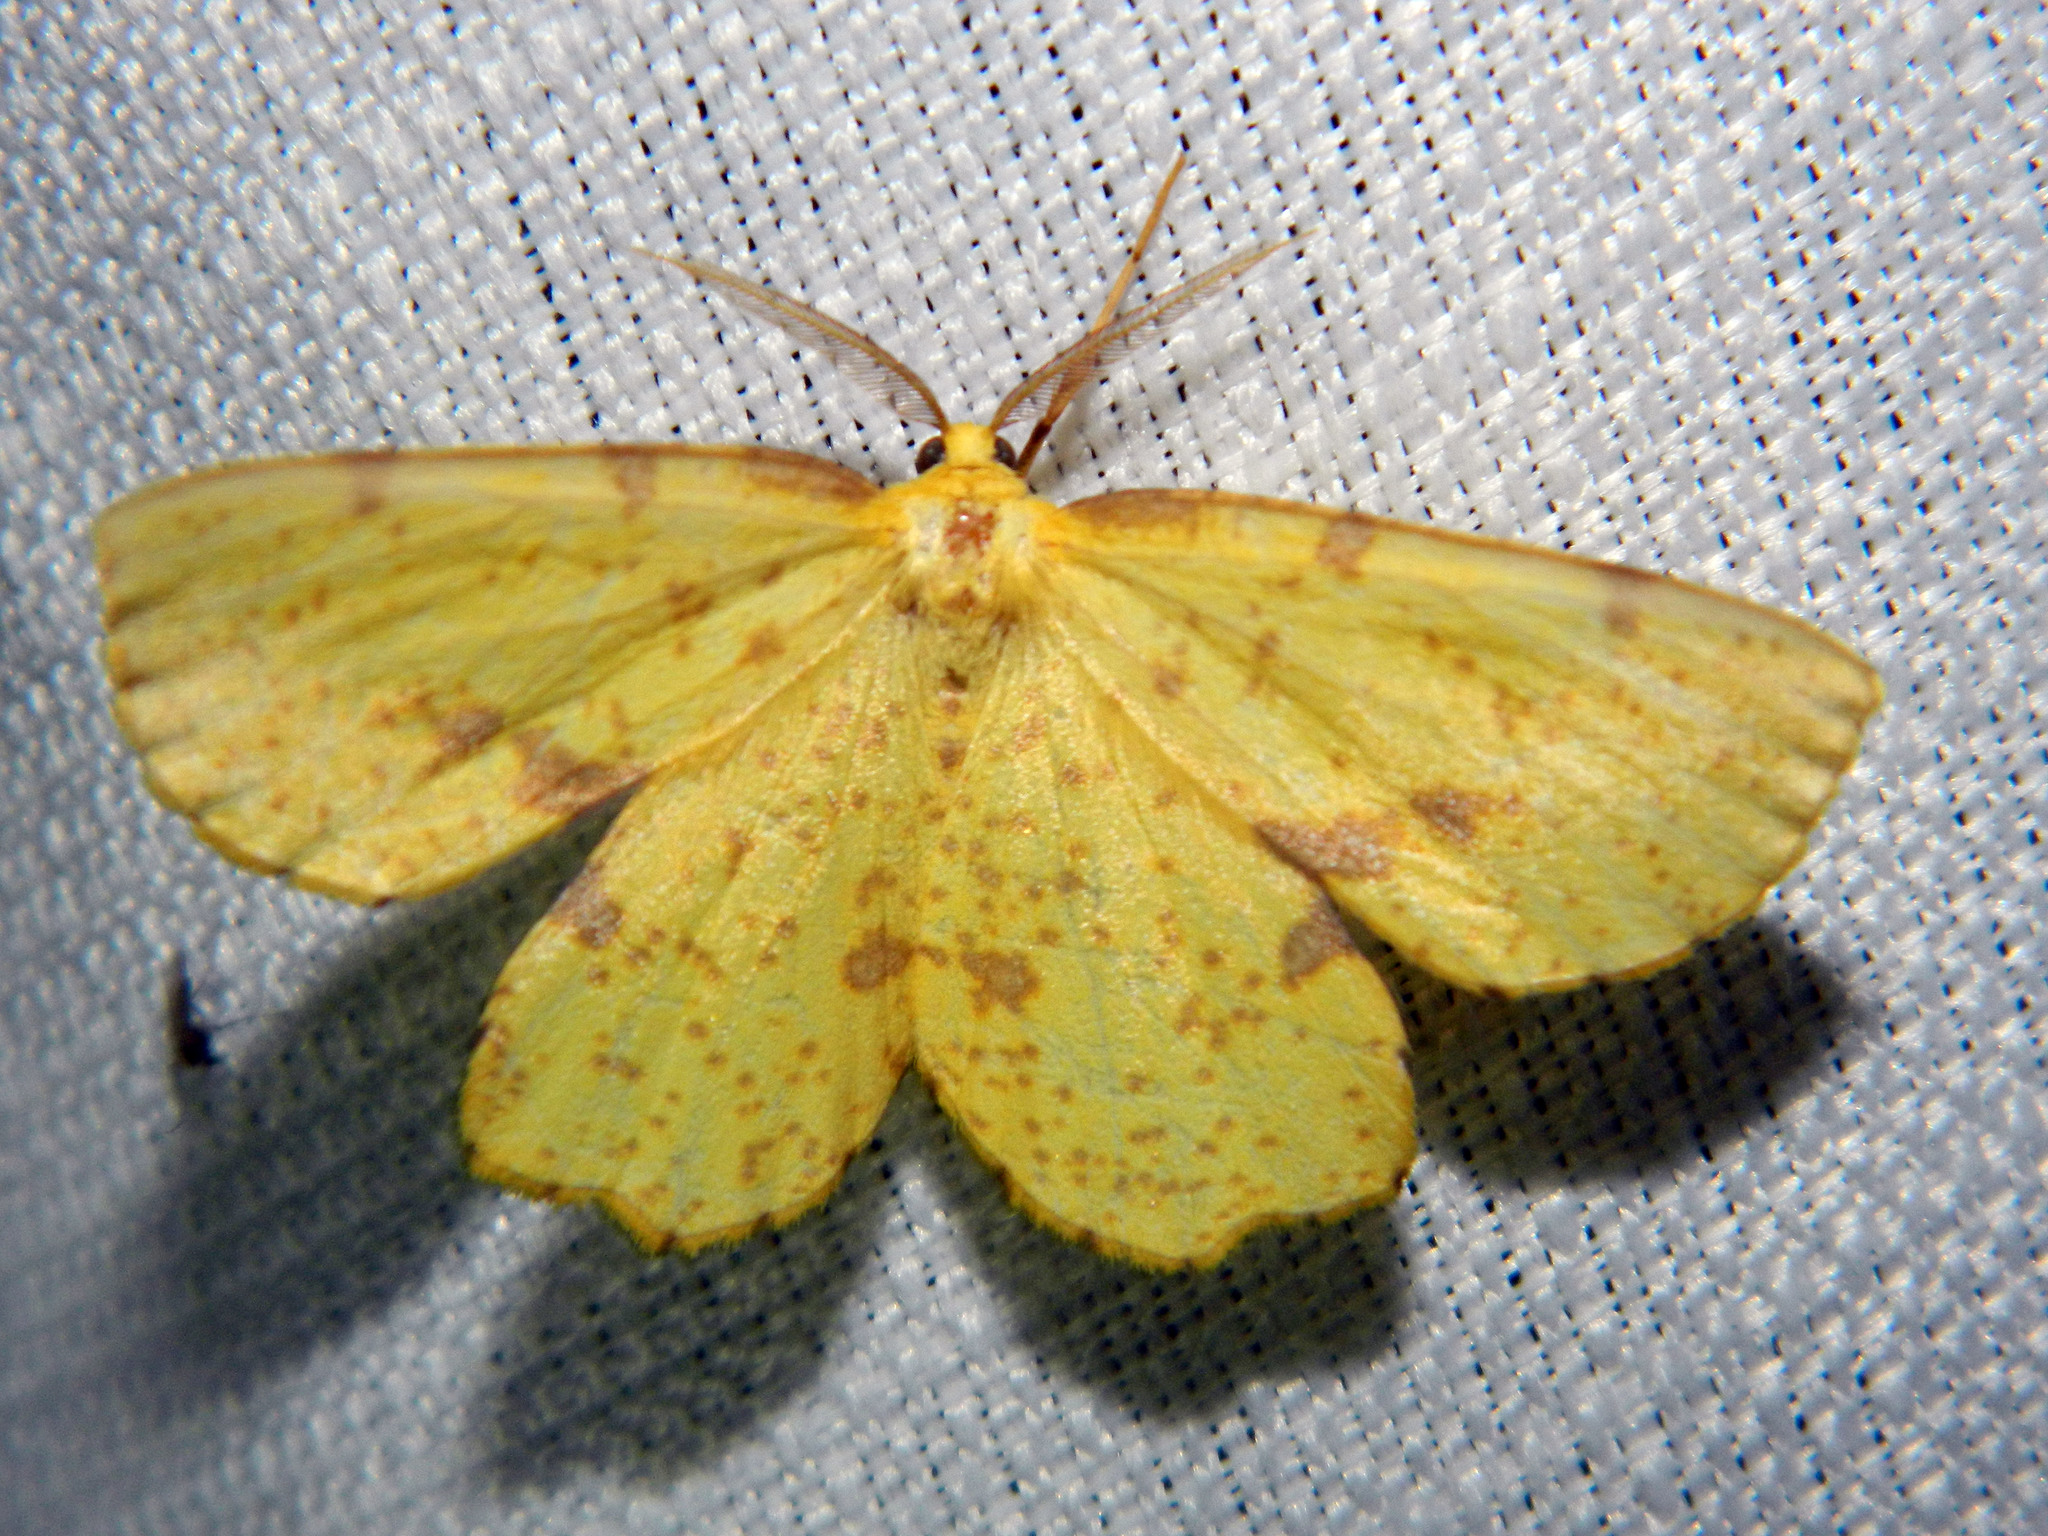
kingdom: Animalia
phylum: Arthropoda
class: Insecta
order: Lepidoptera
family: Geometridae
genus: Xanthotype
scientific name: Xanthotype
